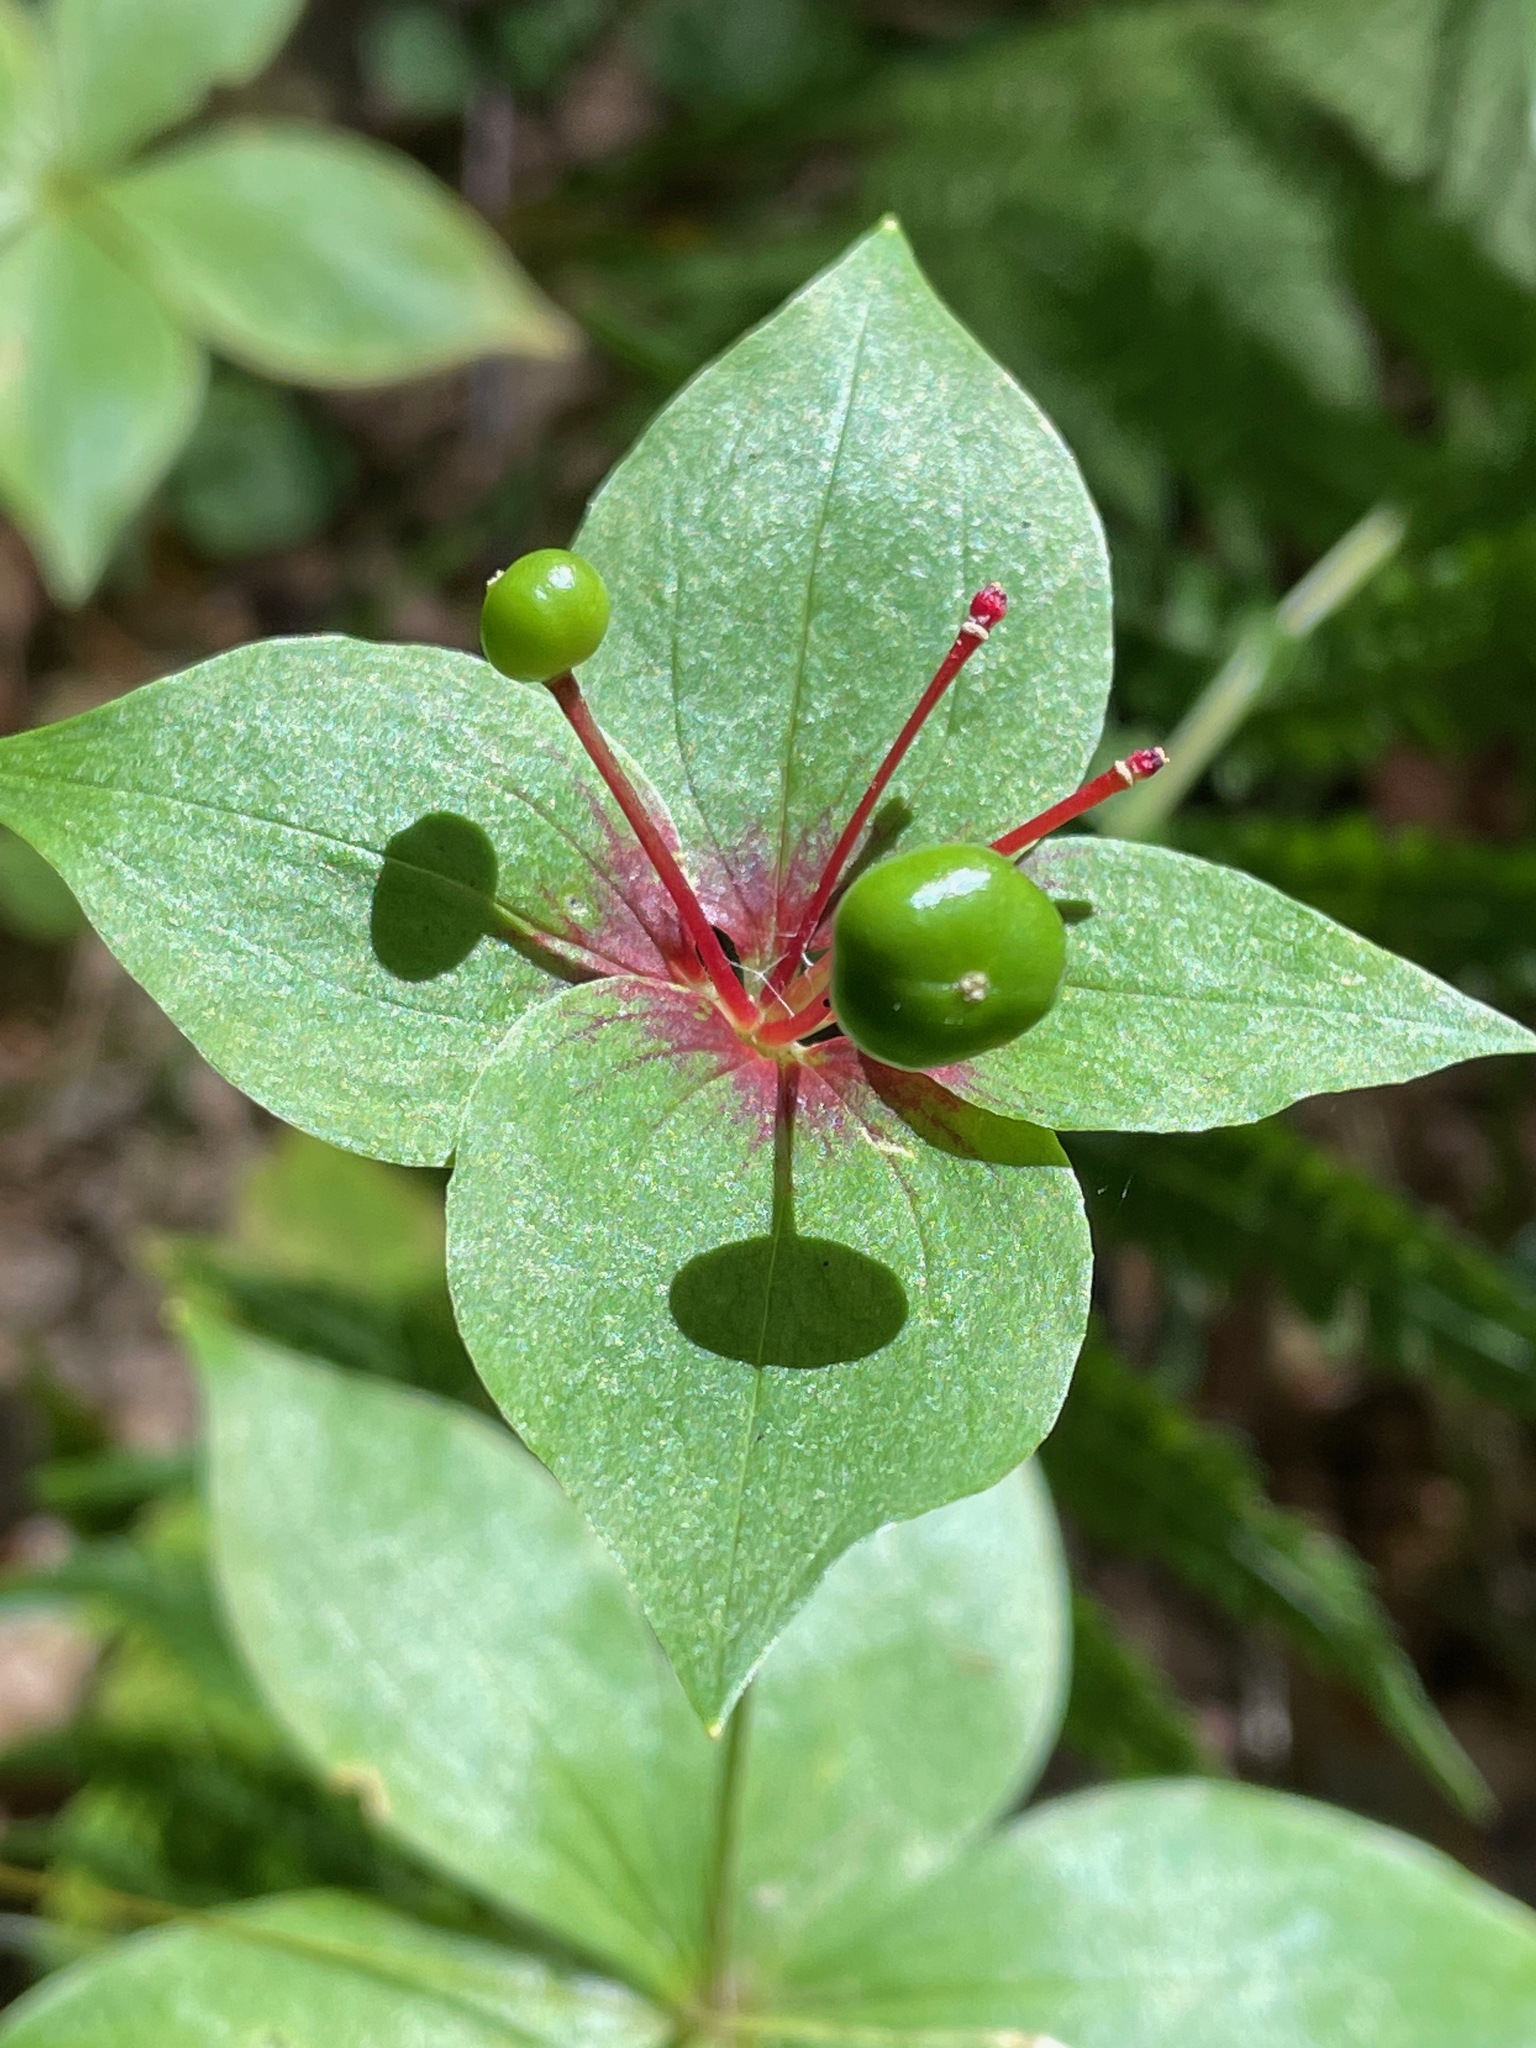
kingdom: Plantae
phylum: Tracheophyta
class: Liliopsida
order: Liliales
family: Liliaceae
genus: Medeola
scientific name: Medeola virginiana
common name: Indian cucumber-root
